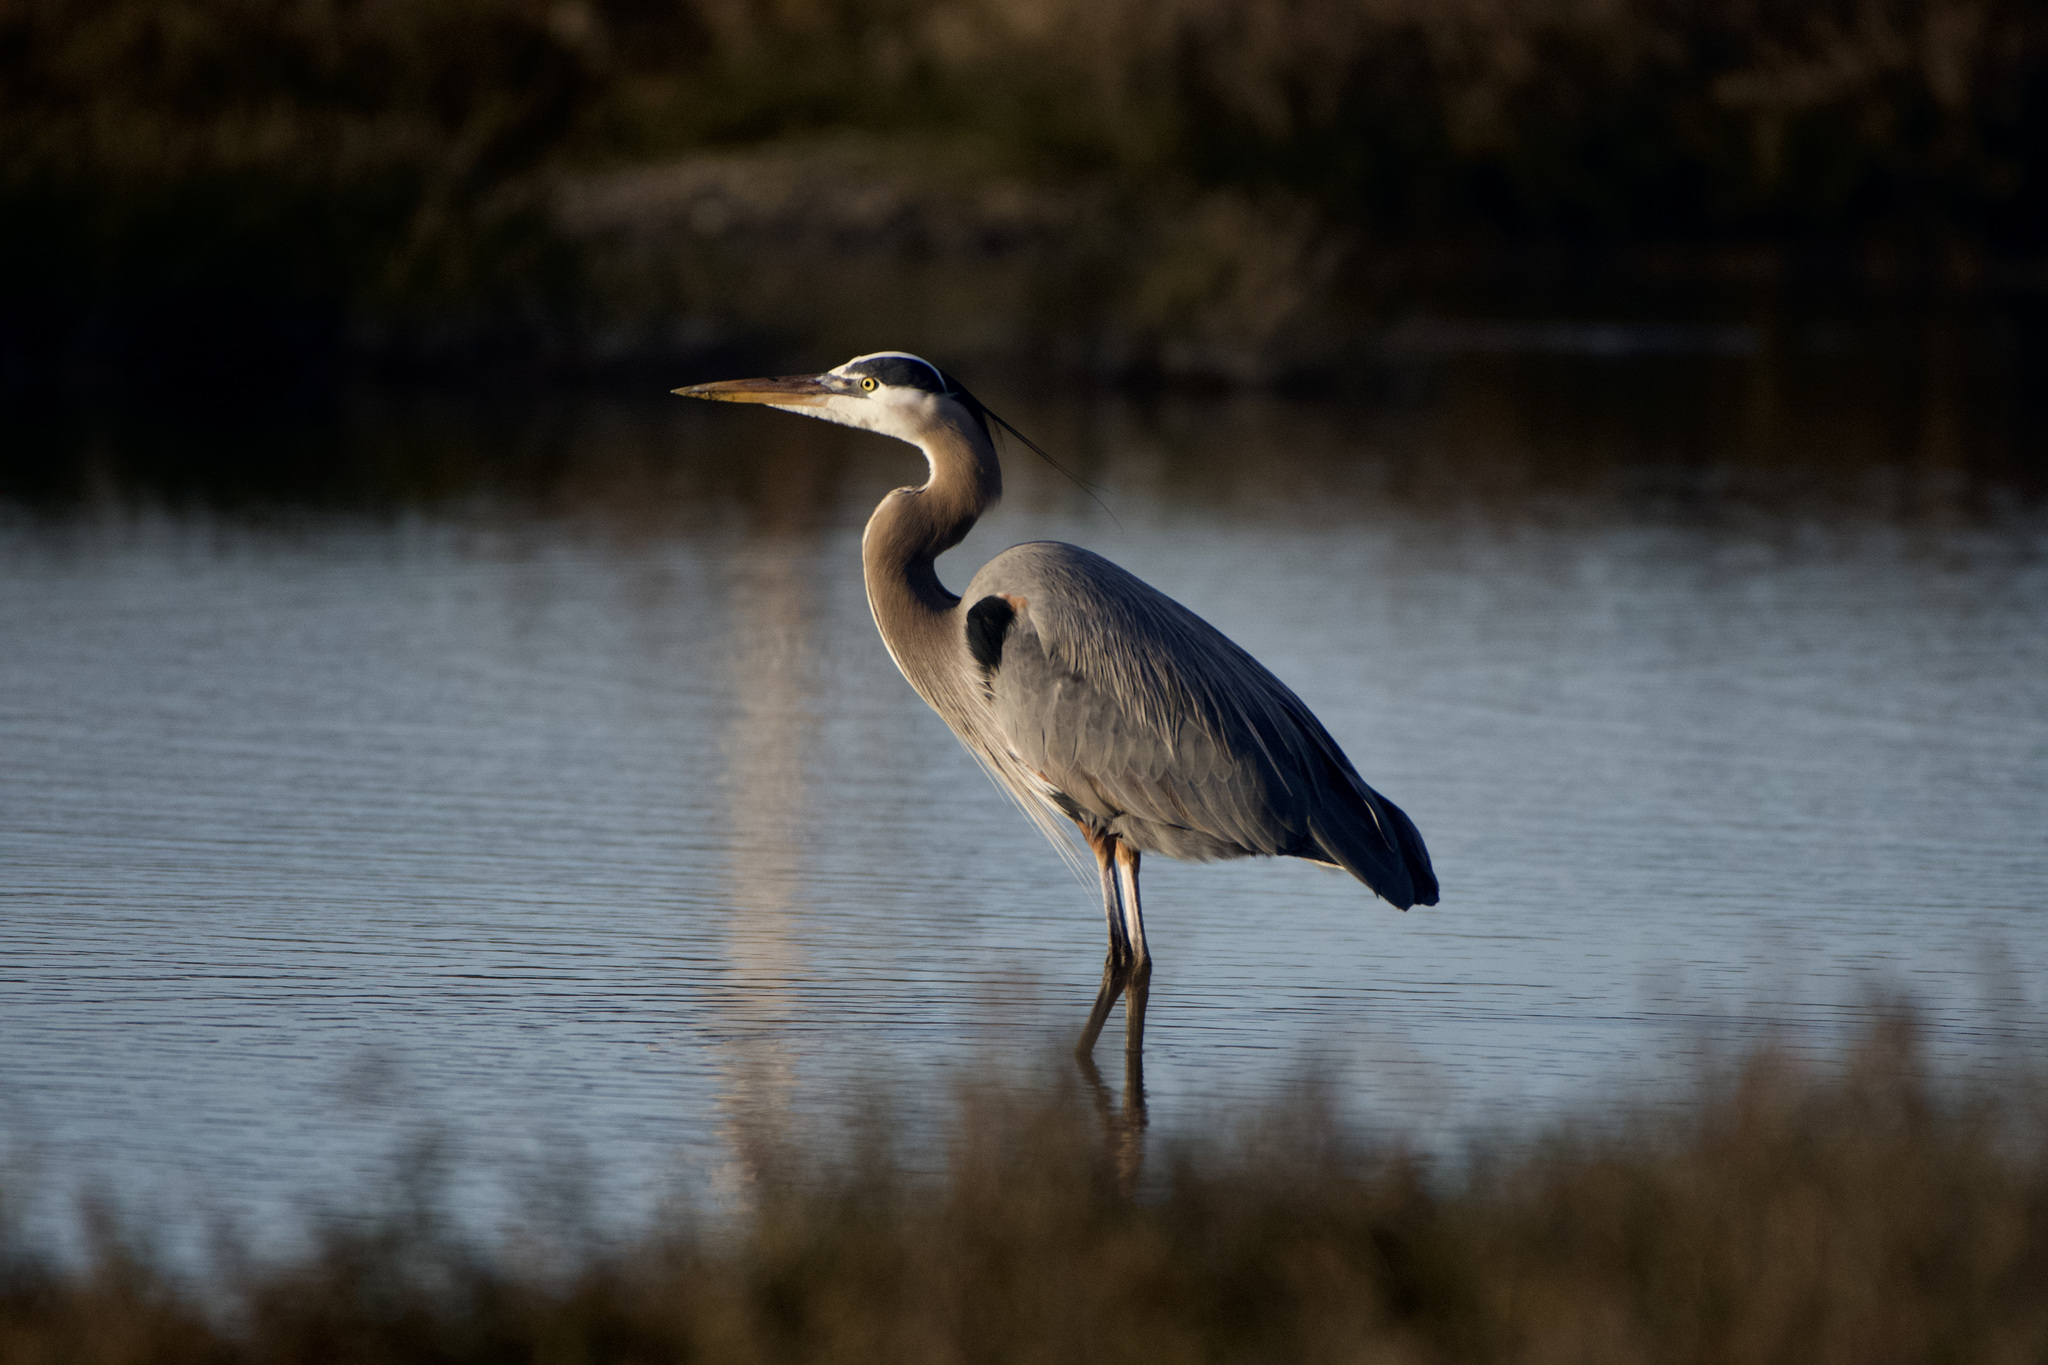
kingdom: Animalia
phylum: Chordata
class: Aves
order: Pelecaniformes
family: Ardeidae
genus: Ardea
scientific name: Ardea herodias
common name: Great blue heron
